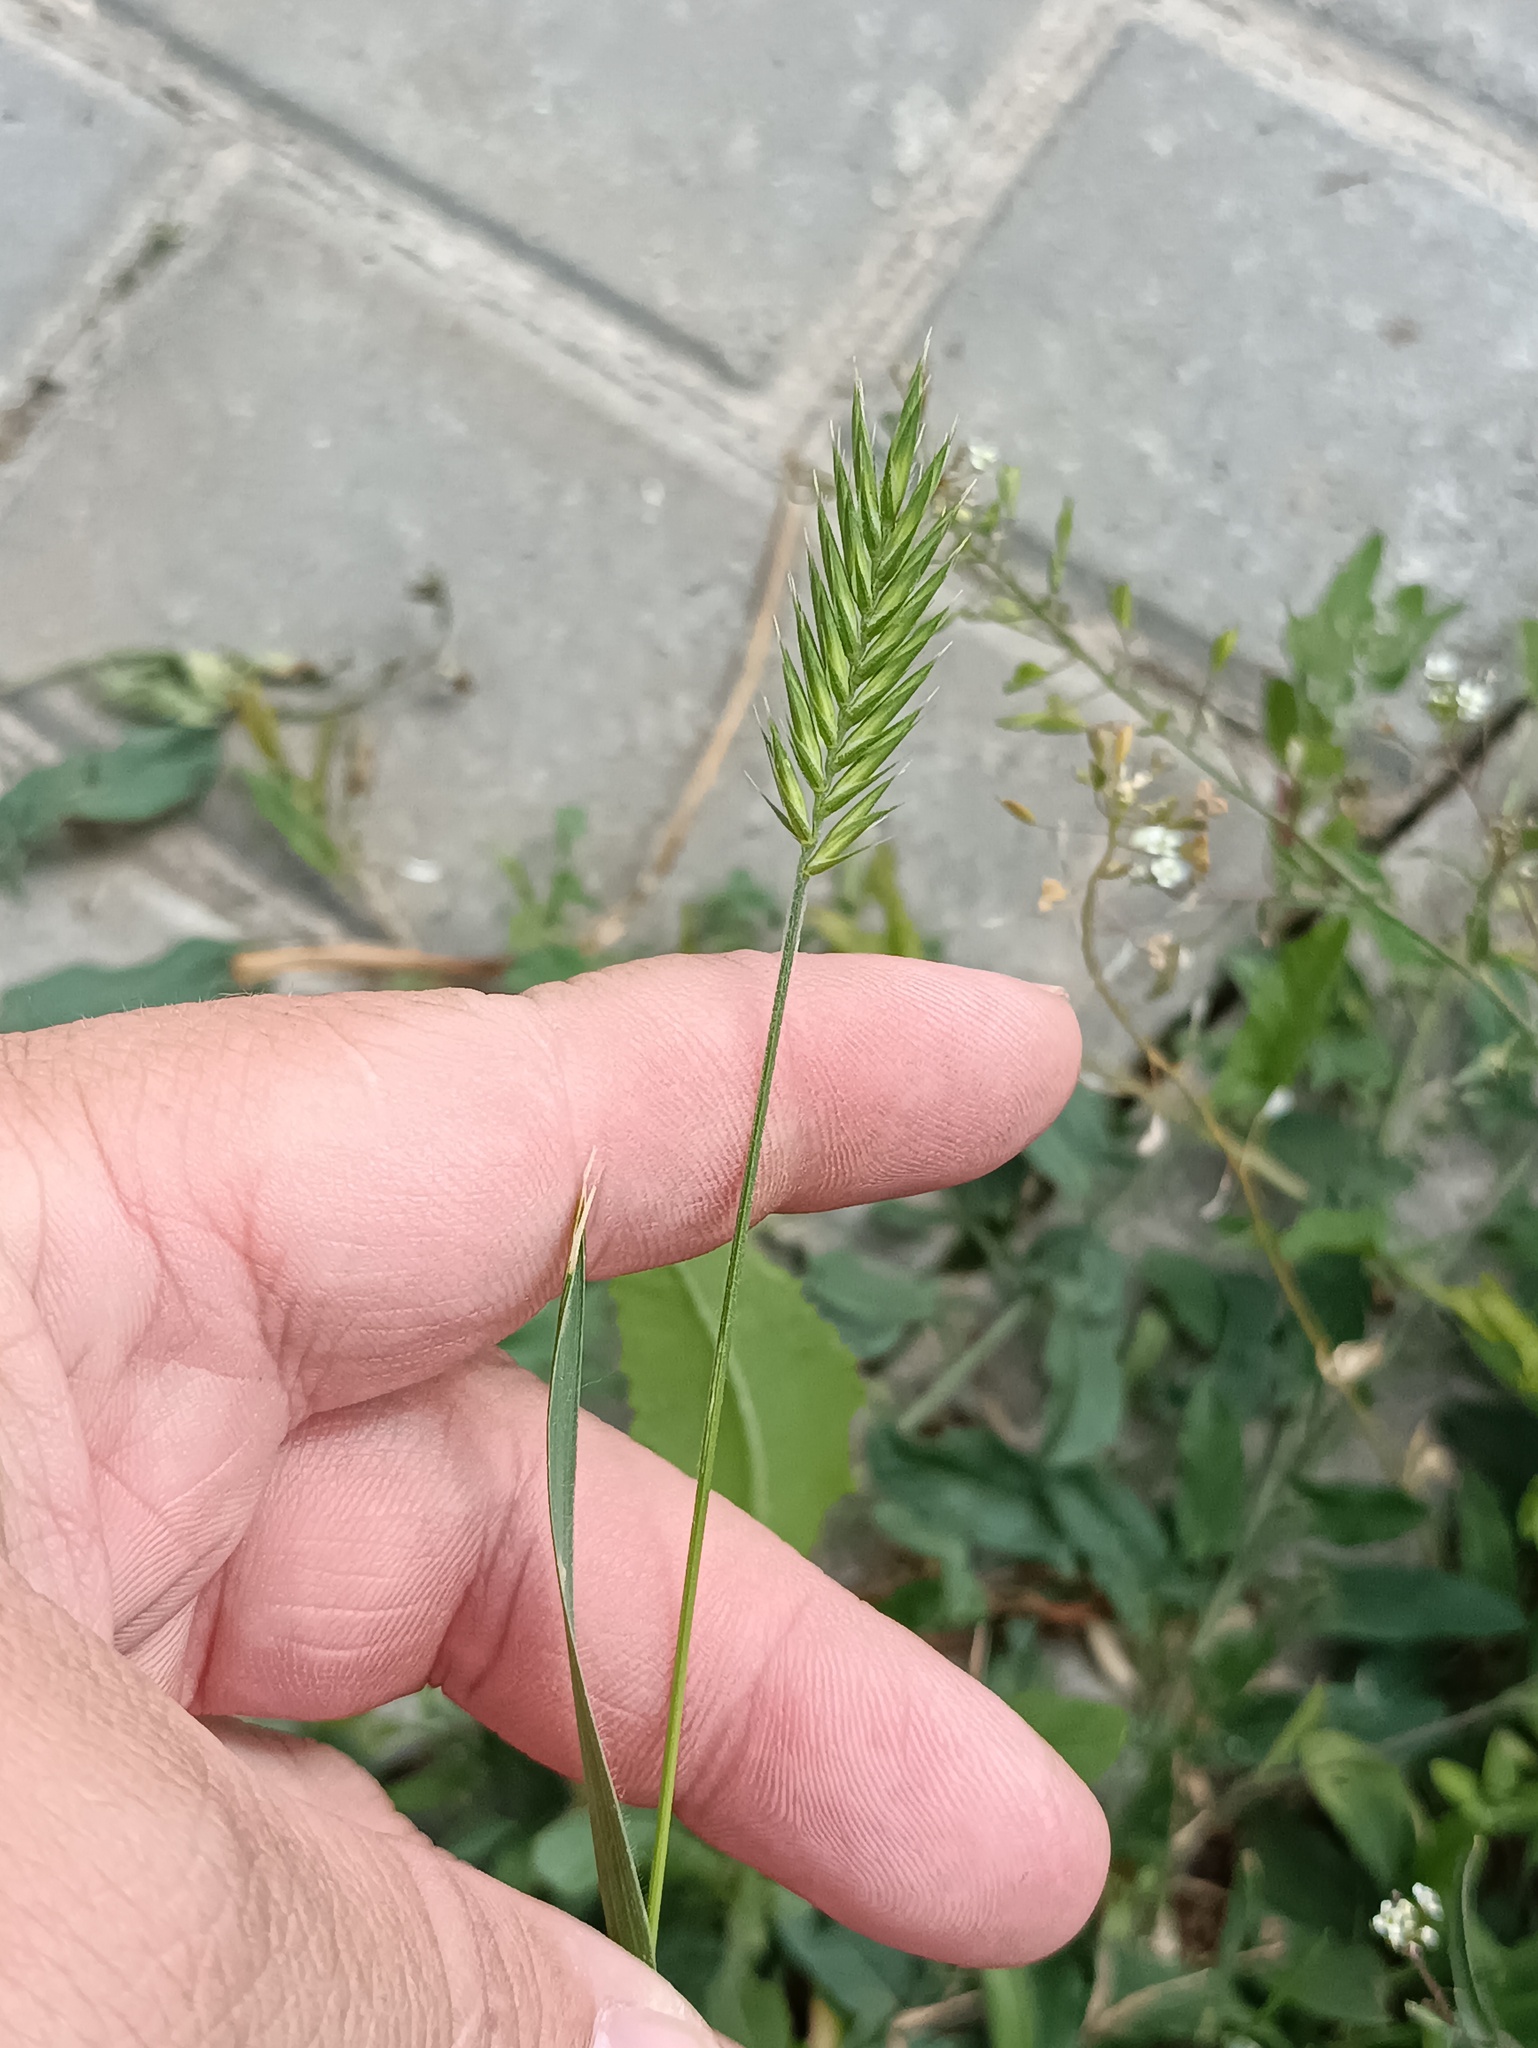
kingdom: Plantae
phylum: Tracheophyta
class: Liliopsida
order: Poales
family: Poaceae
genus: Agropyron
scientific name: Agropyron cristatum
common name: Crested wheatgrass
